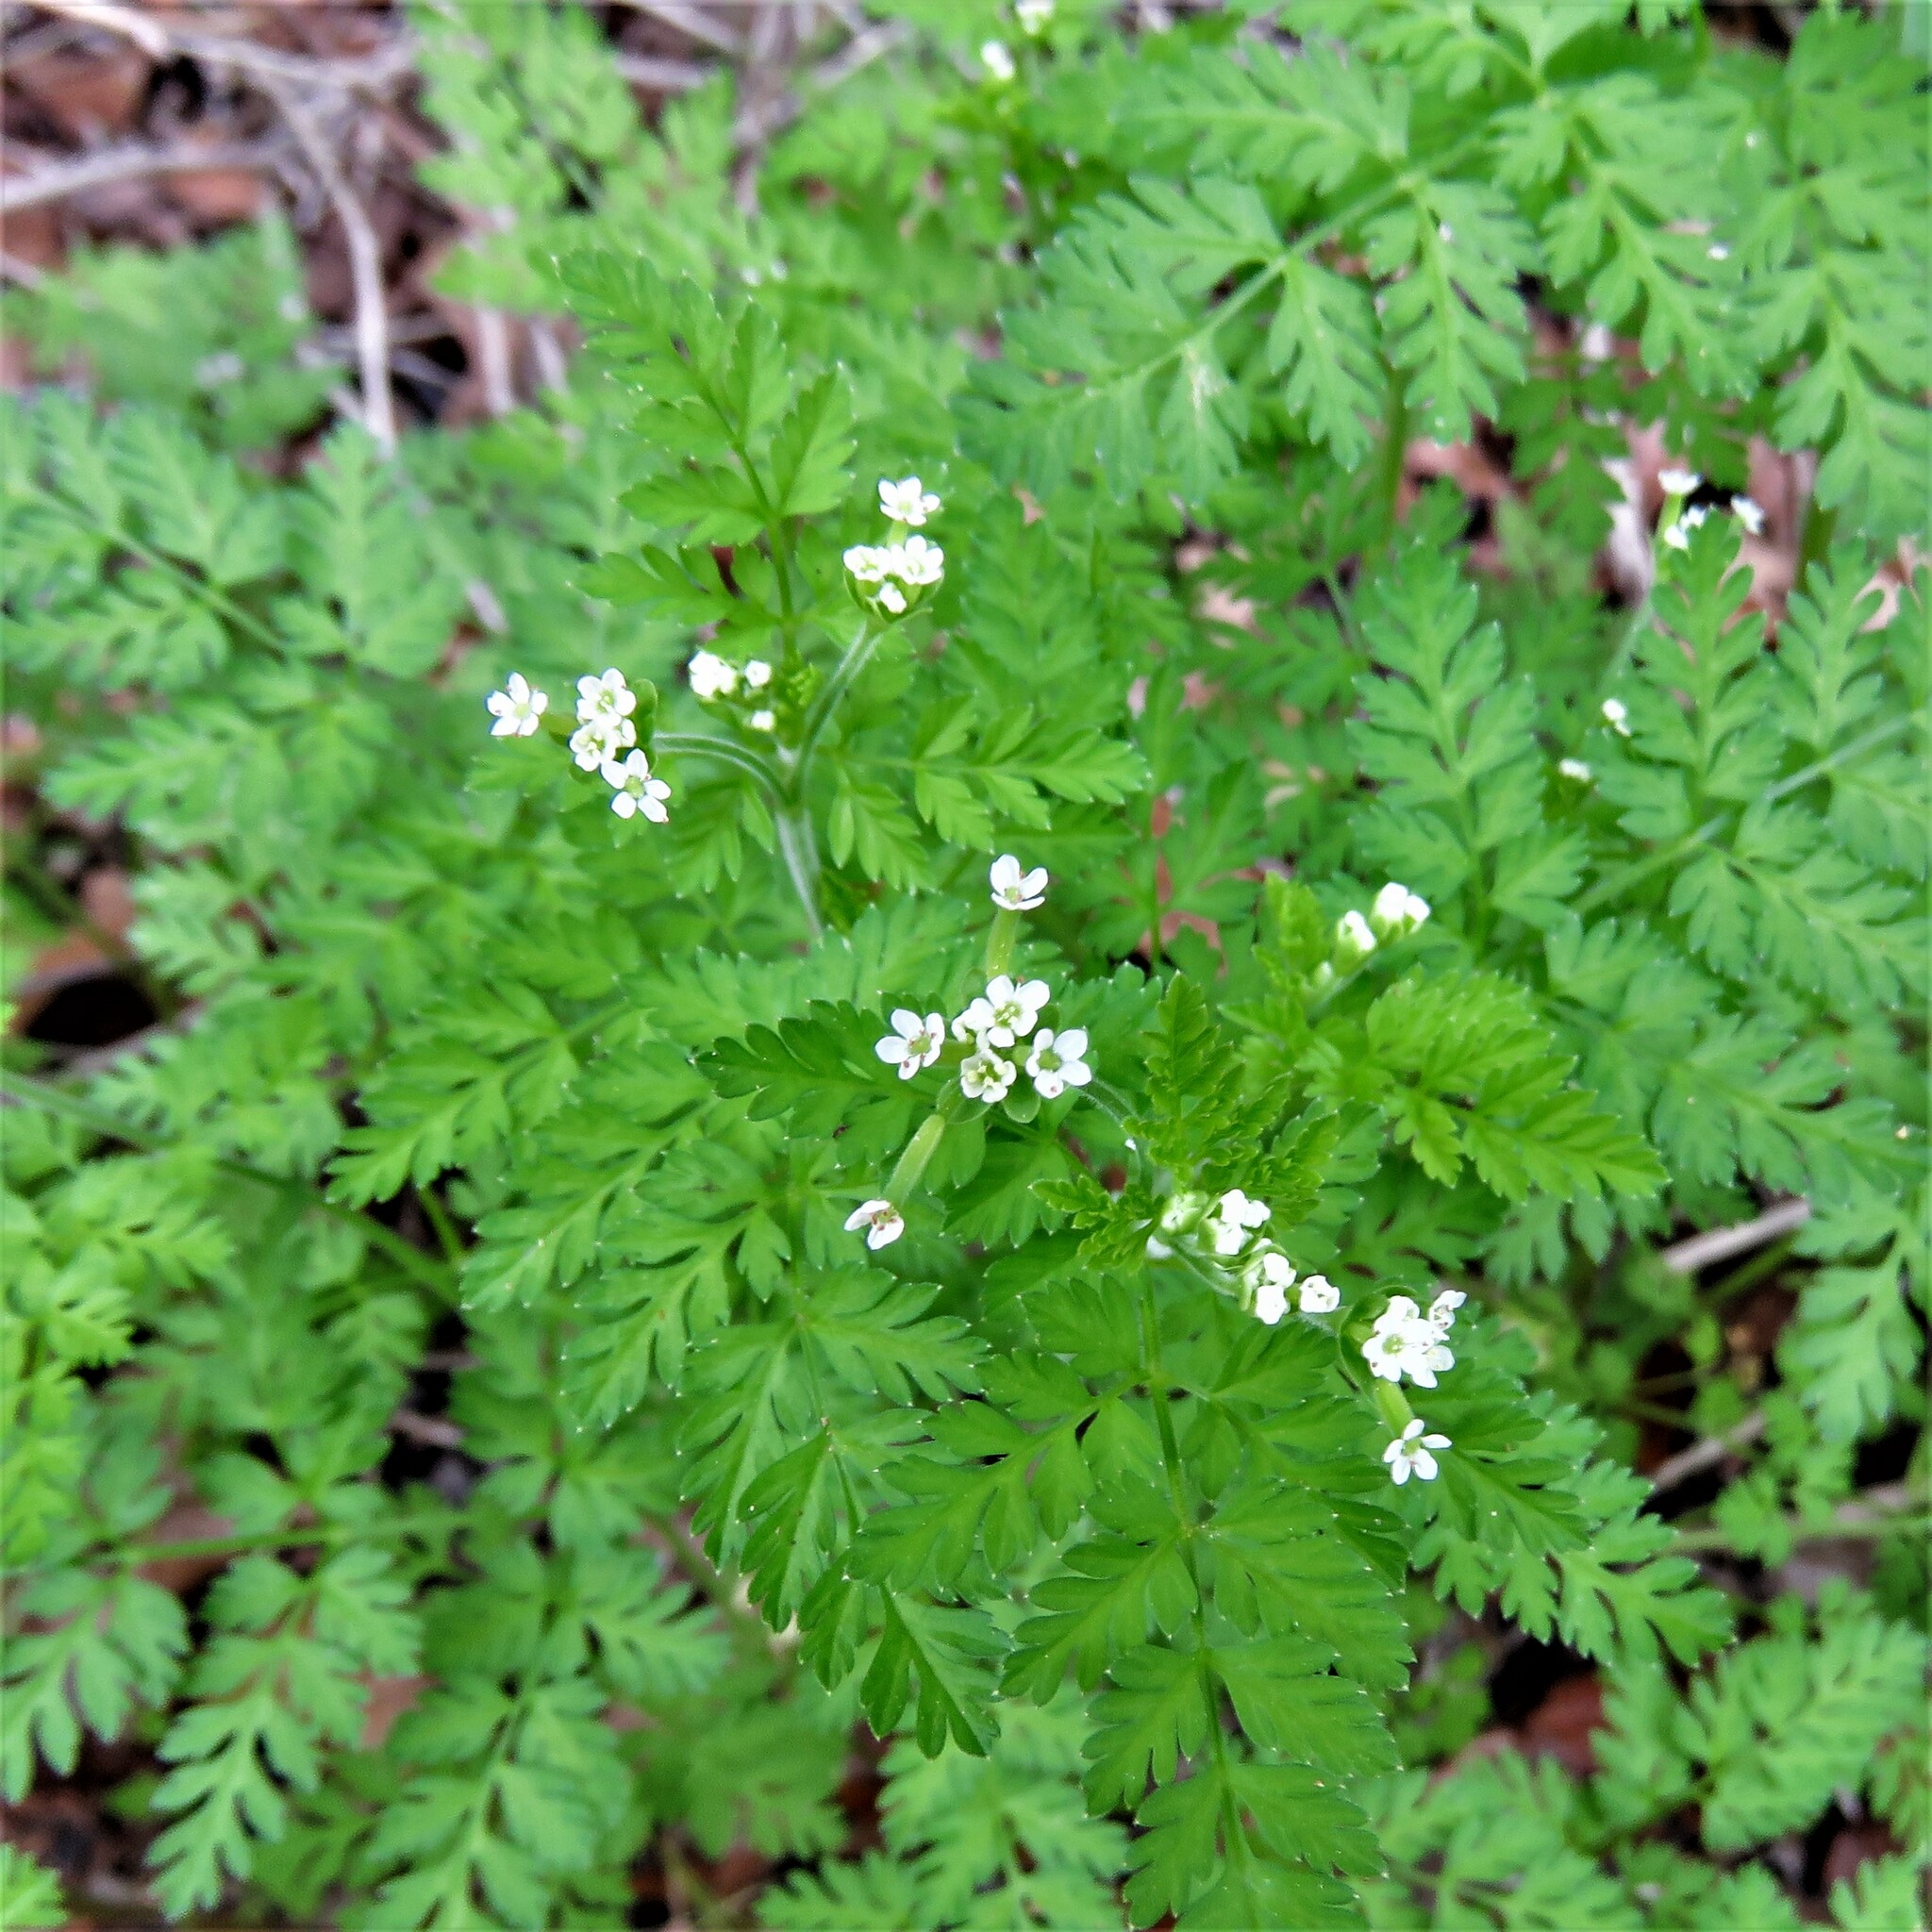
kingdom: Plantae
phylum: Tracheophyta
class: Magnoliopsida
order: Apiales
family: Apiaceae
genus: Chaerophyllum
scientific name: Chaerophyllum tainturieri
